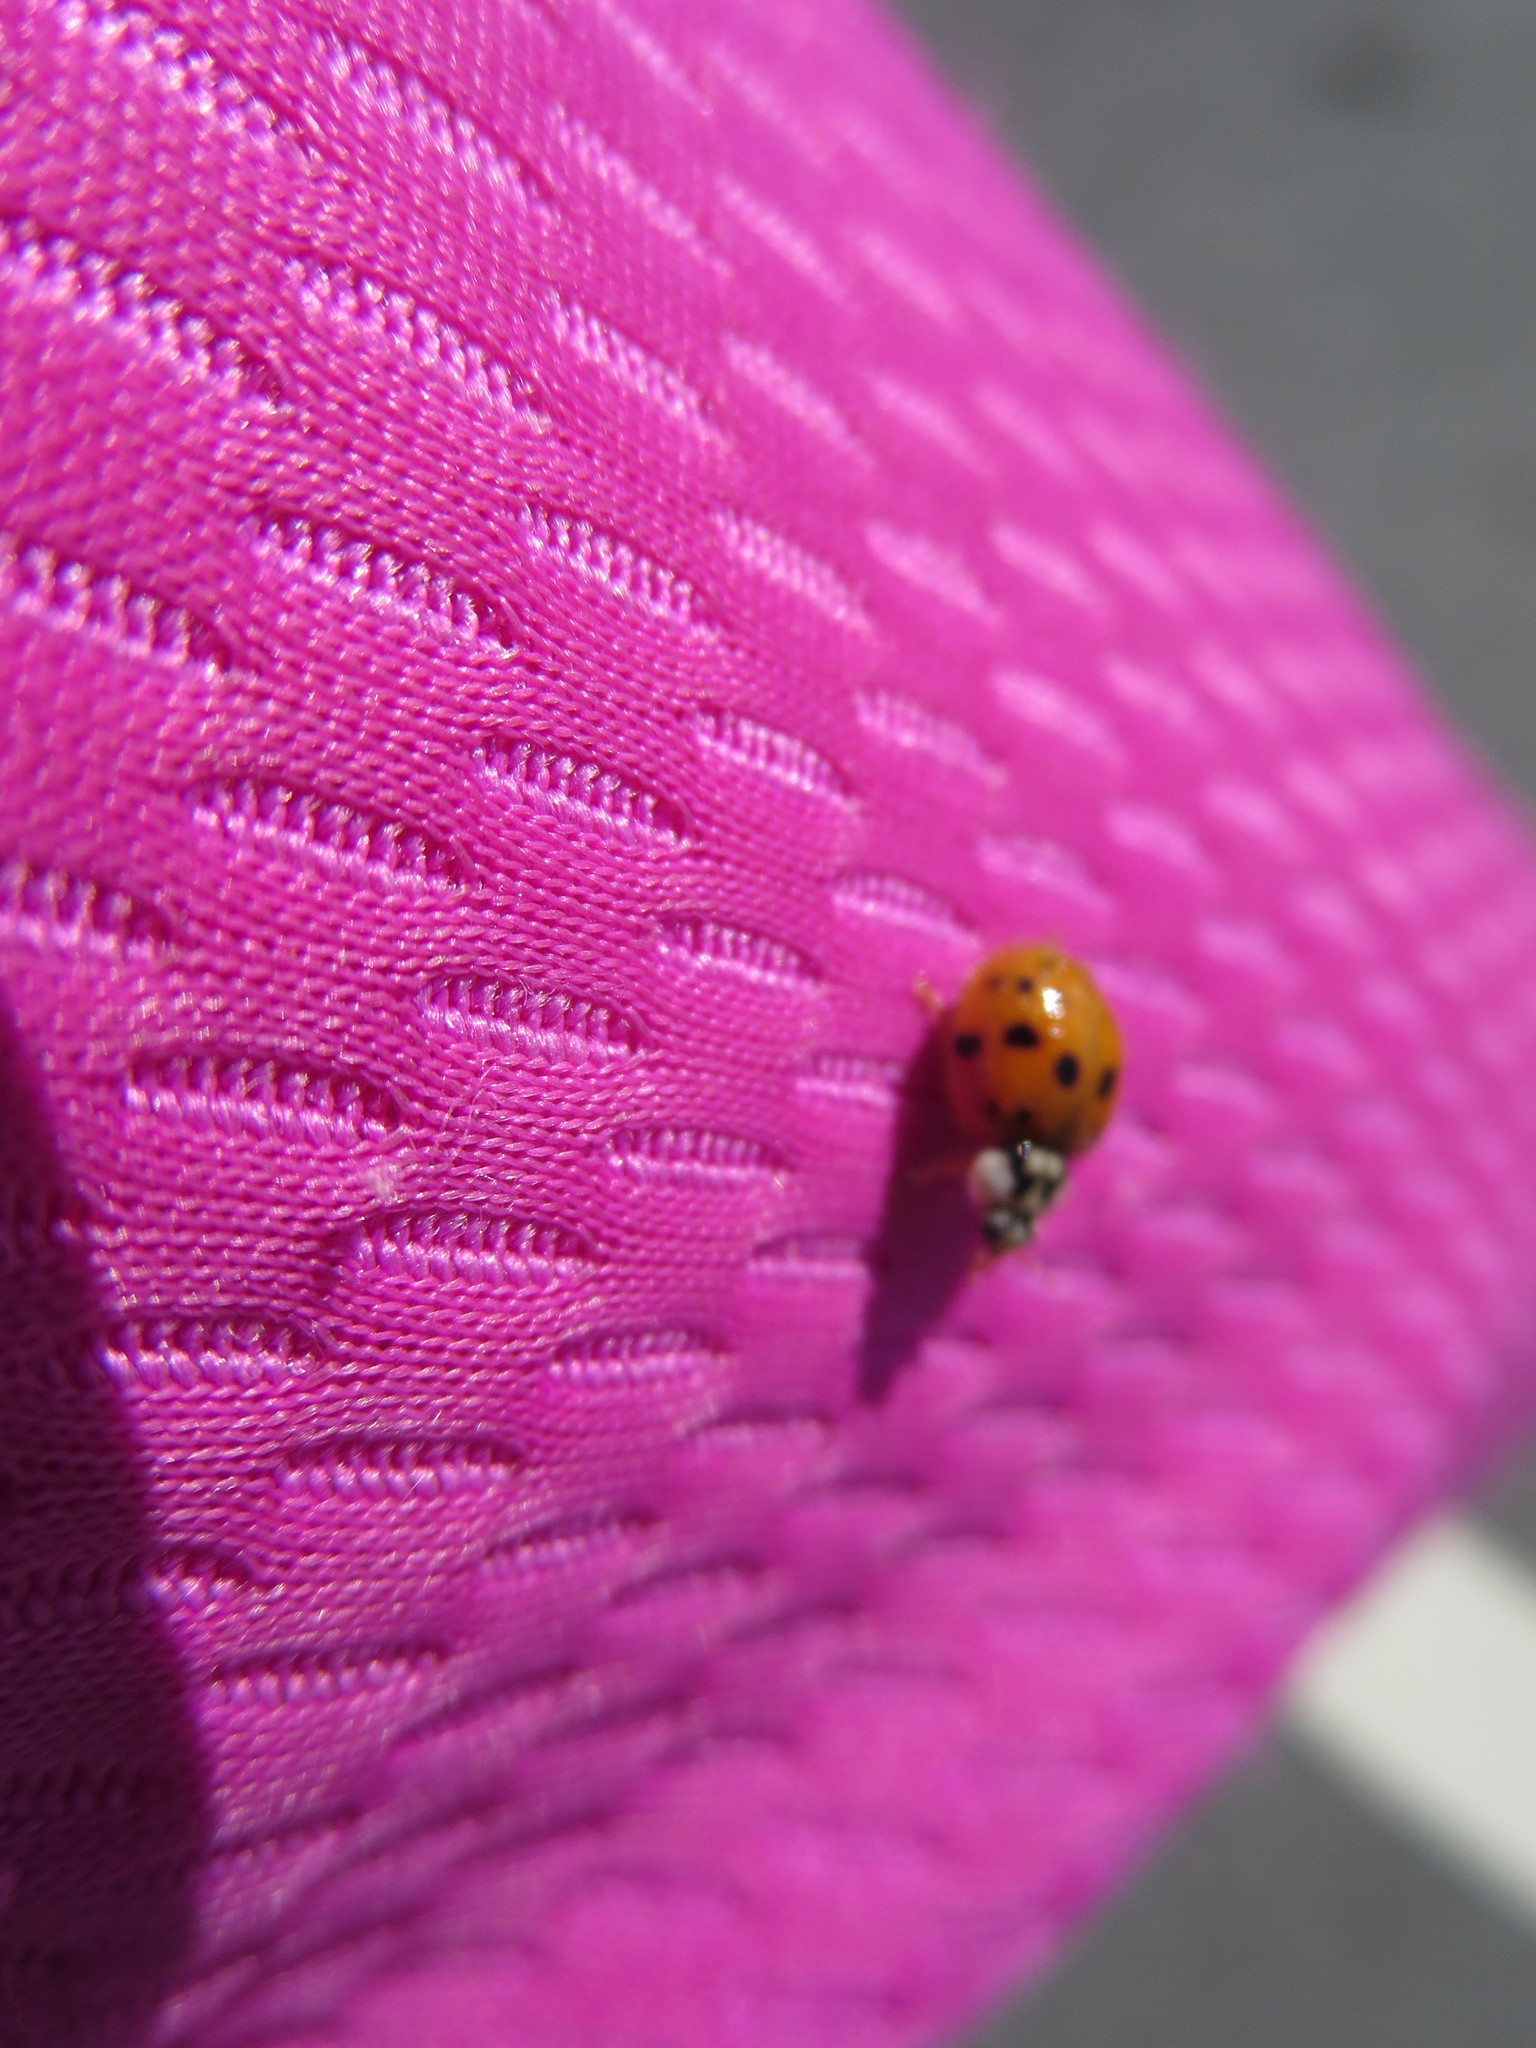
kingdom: Animalia
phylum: Arthropoda
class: Insecta
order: Coleoptera
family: Coccinellidae
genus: Harmonia
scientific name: Harmonia axyridis
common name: Harlequin ladybird
